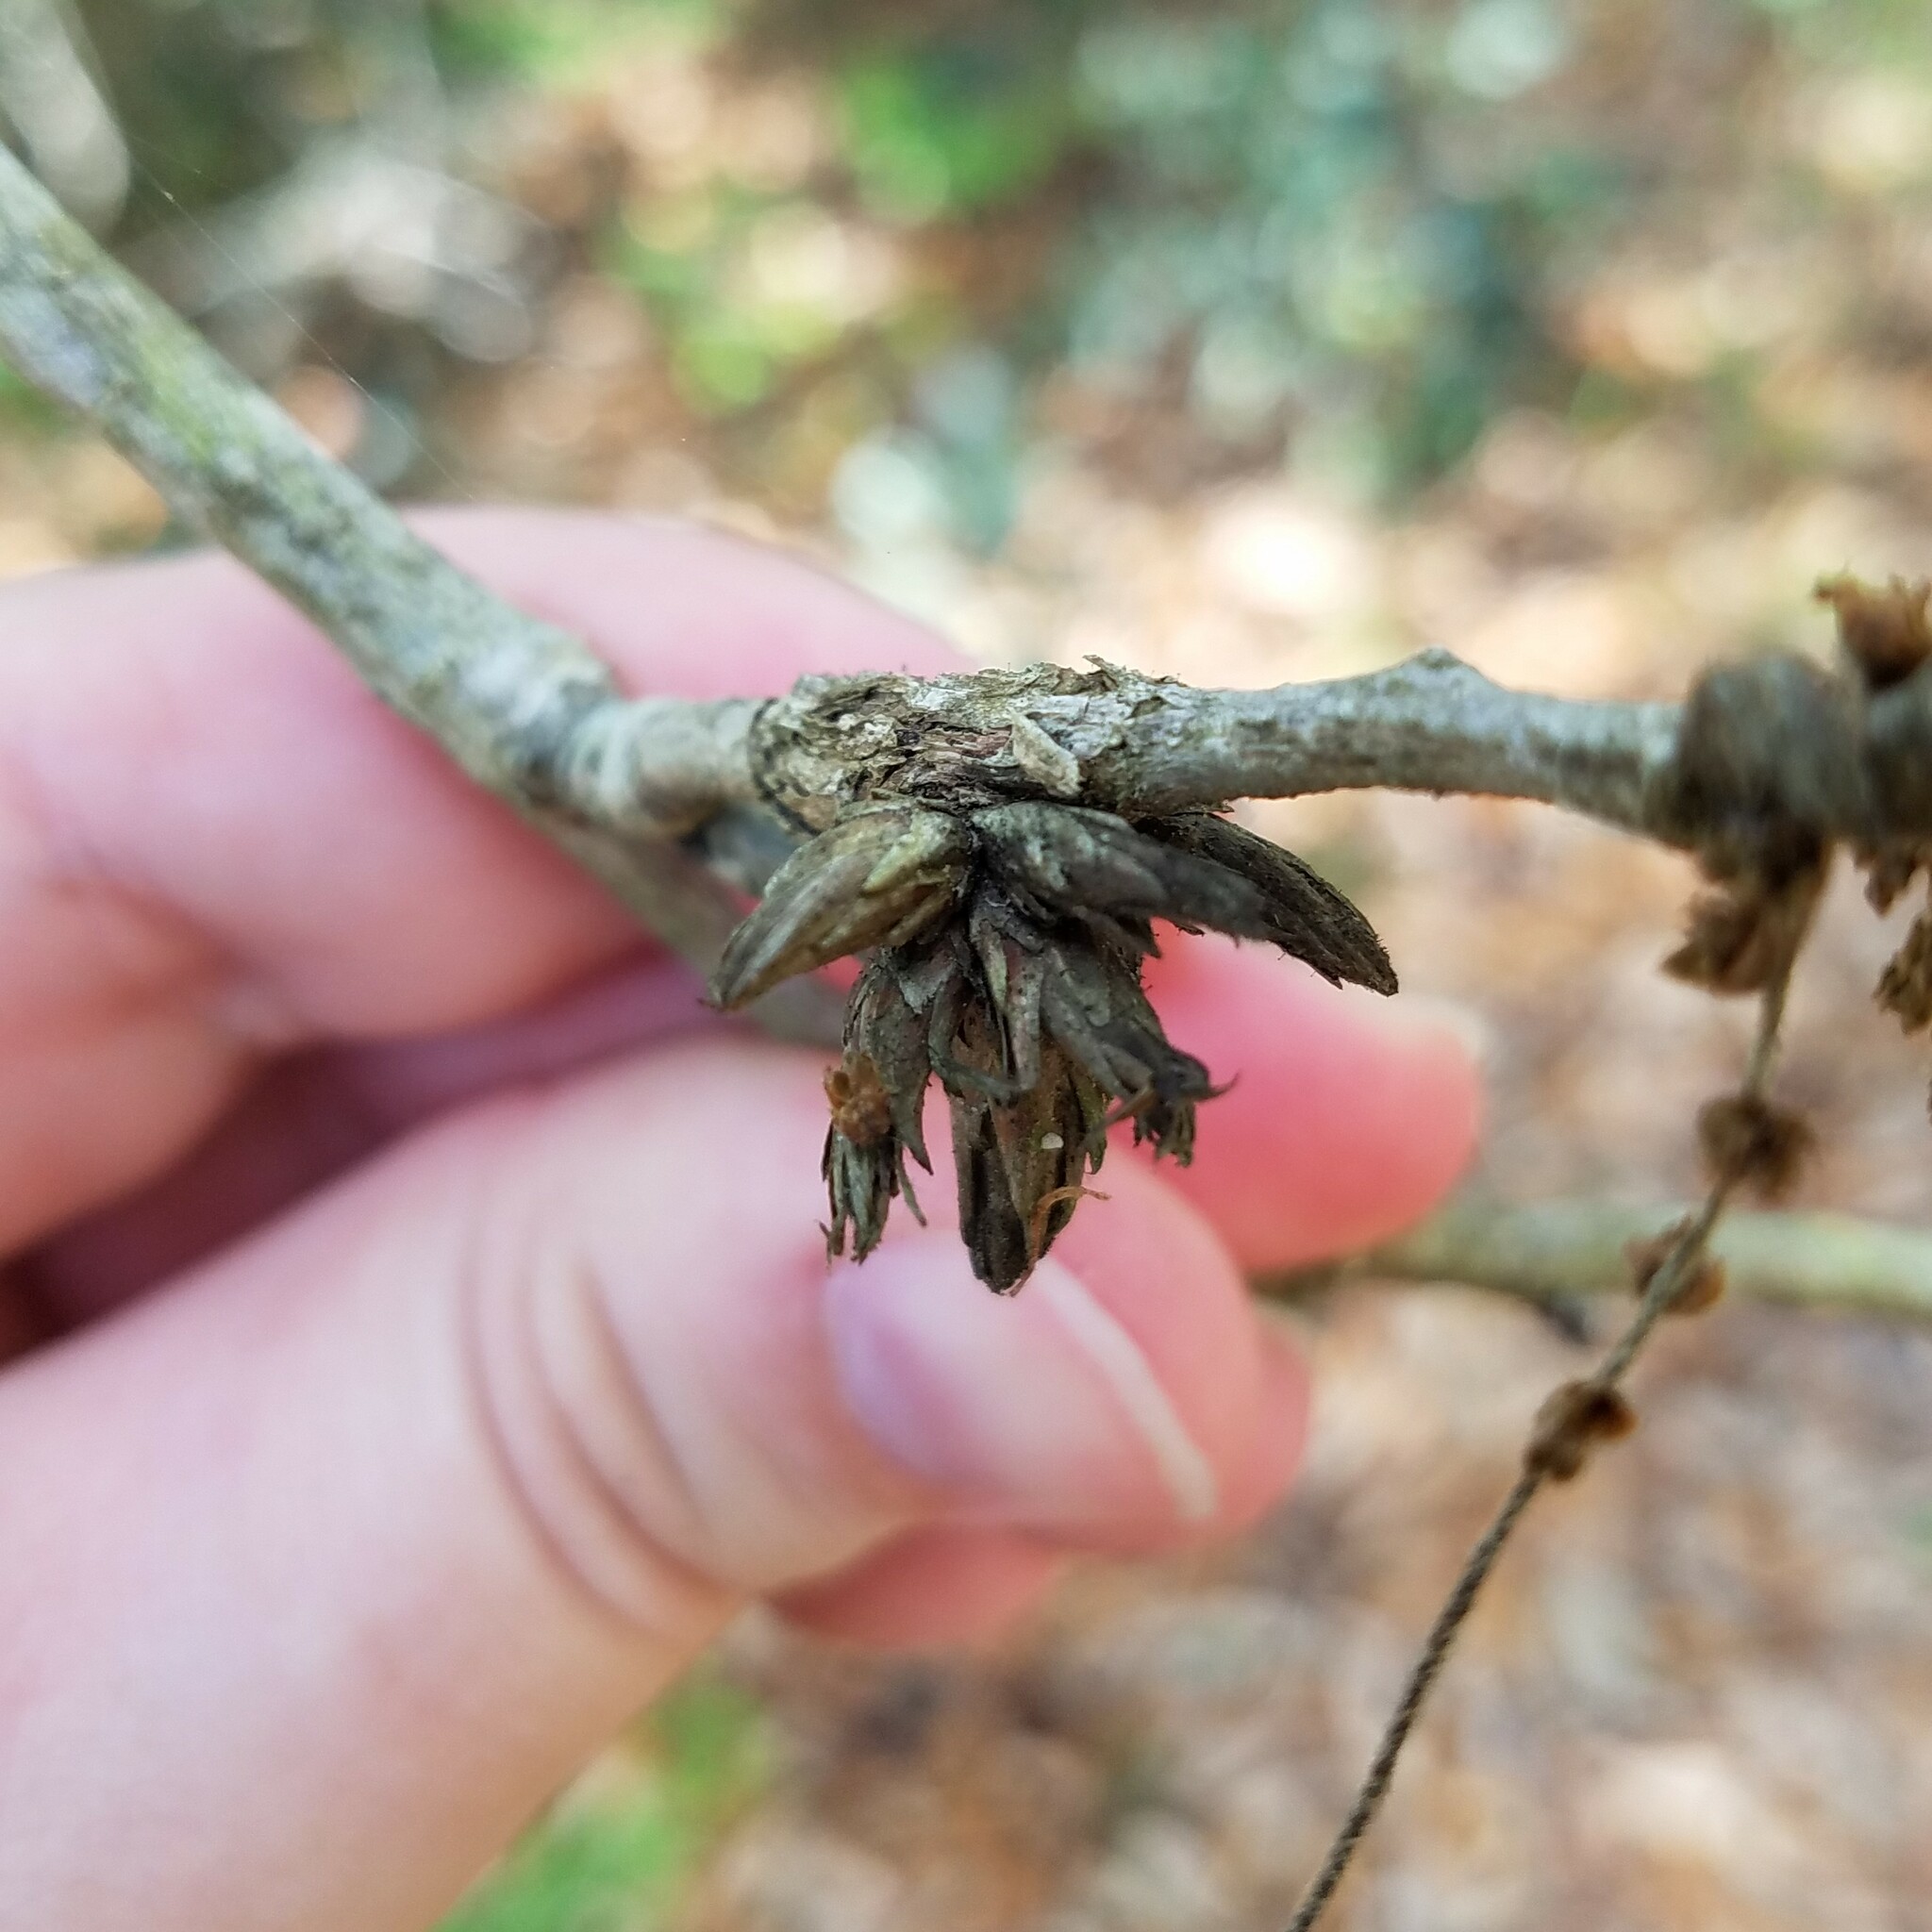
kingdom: Animalia
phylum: Arthropoda
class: Insecta
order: Diptera
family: Cecidomyiidae
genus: Arnoldiola
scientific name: Arnoldiola atra
